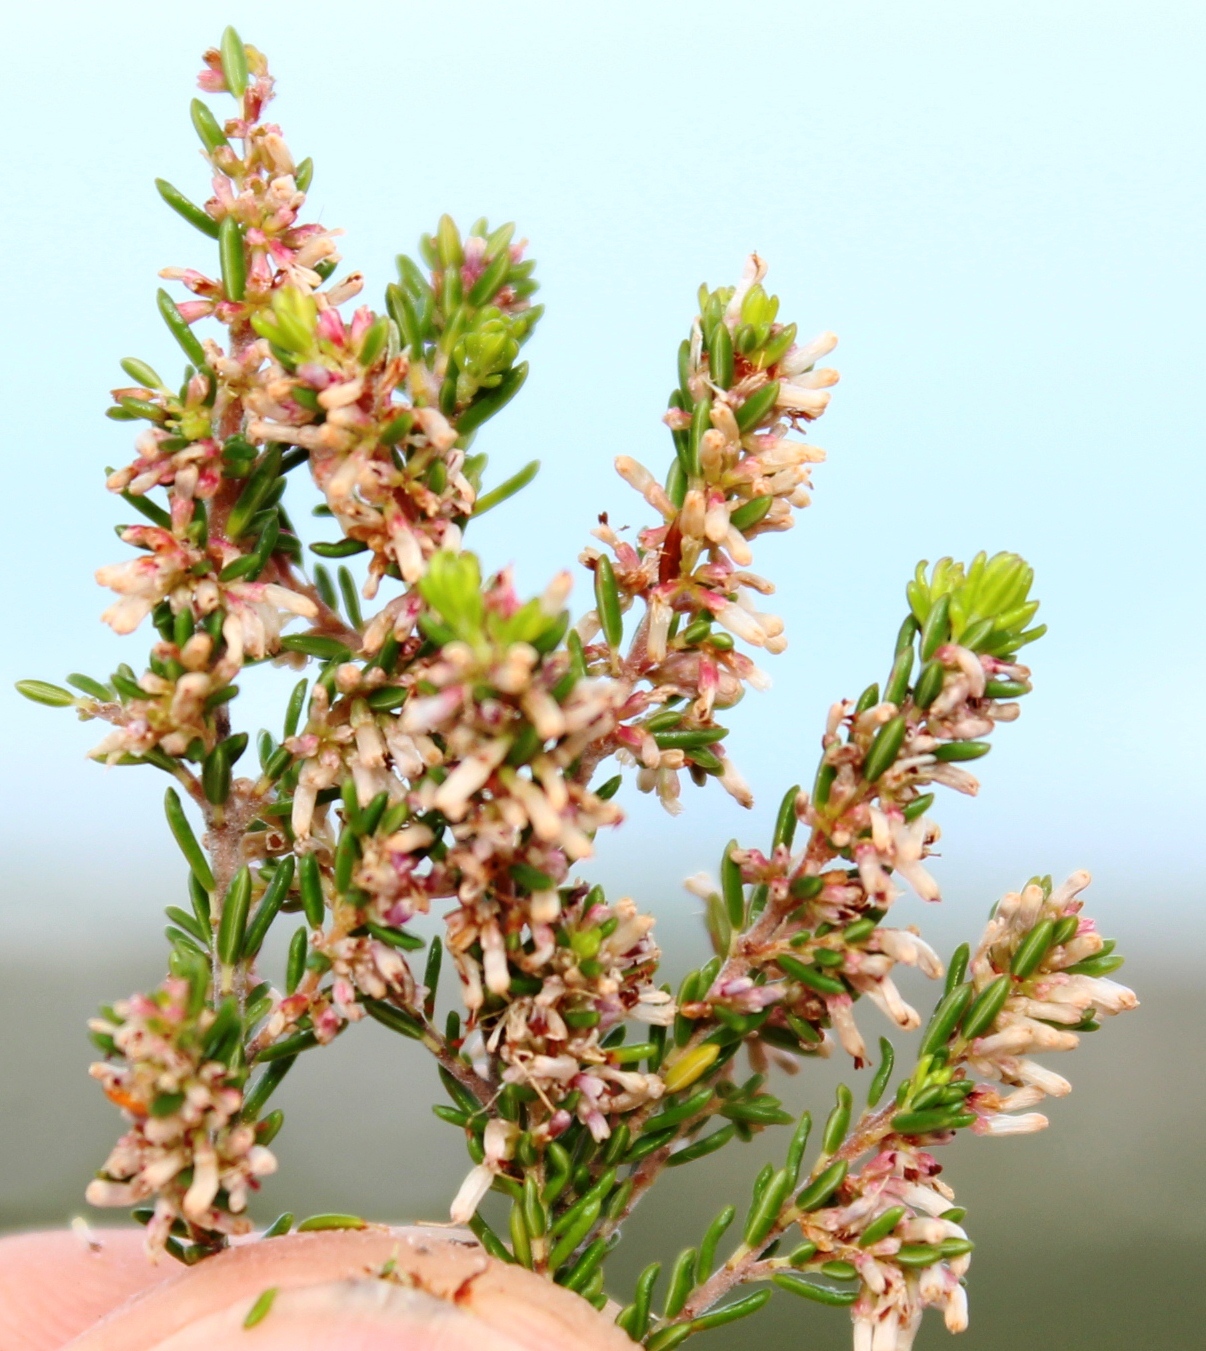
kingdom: Plantae
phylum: Tracheophyta
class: Magnoliopsida
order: Ericales
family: Ericaceae
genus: Erica
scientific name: Erica uberiflora
